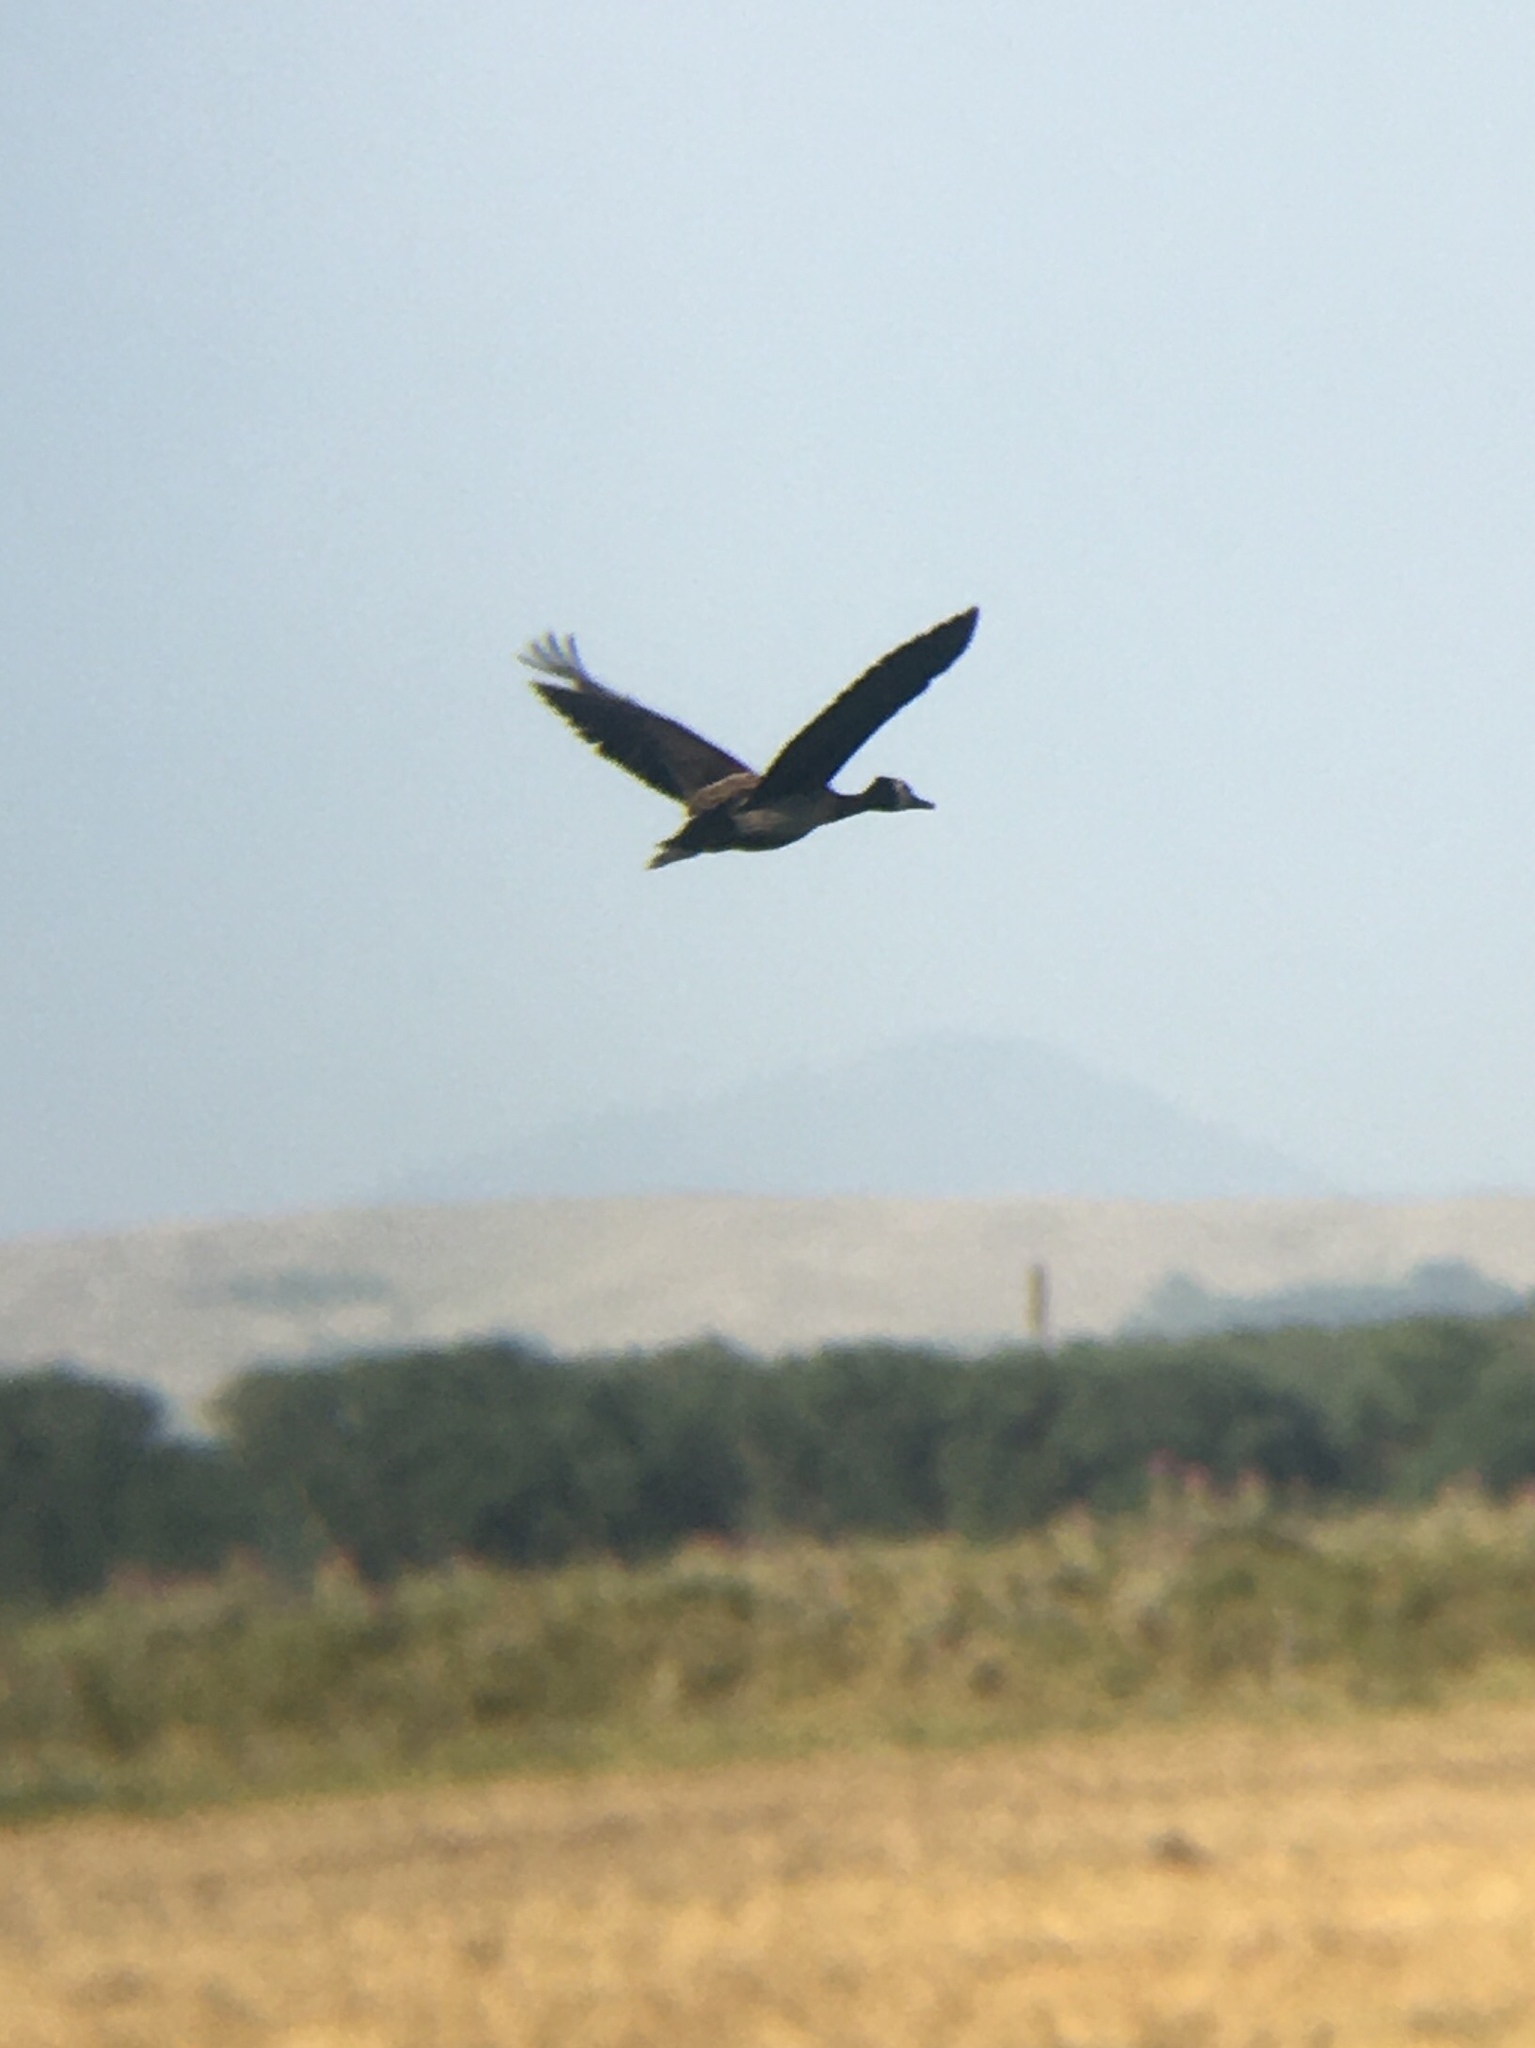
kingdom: Animalia
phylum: Chordata
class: Aves
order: Anseriformes
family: Anatidae
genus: Dendrocygna
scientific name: Dendrocygna viduata
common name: White-faced whistling duck
